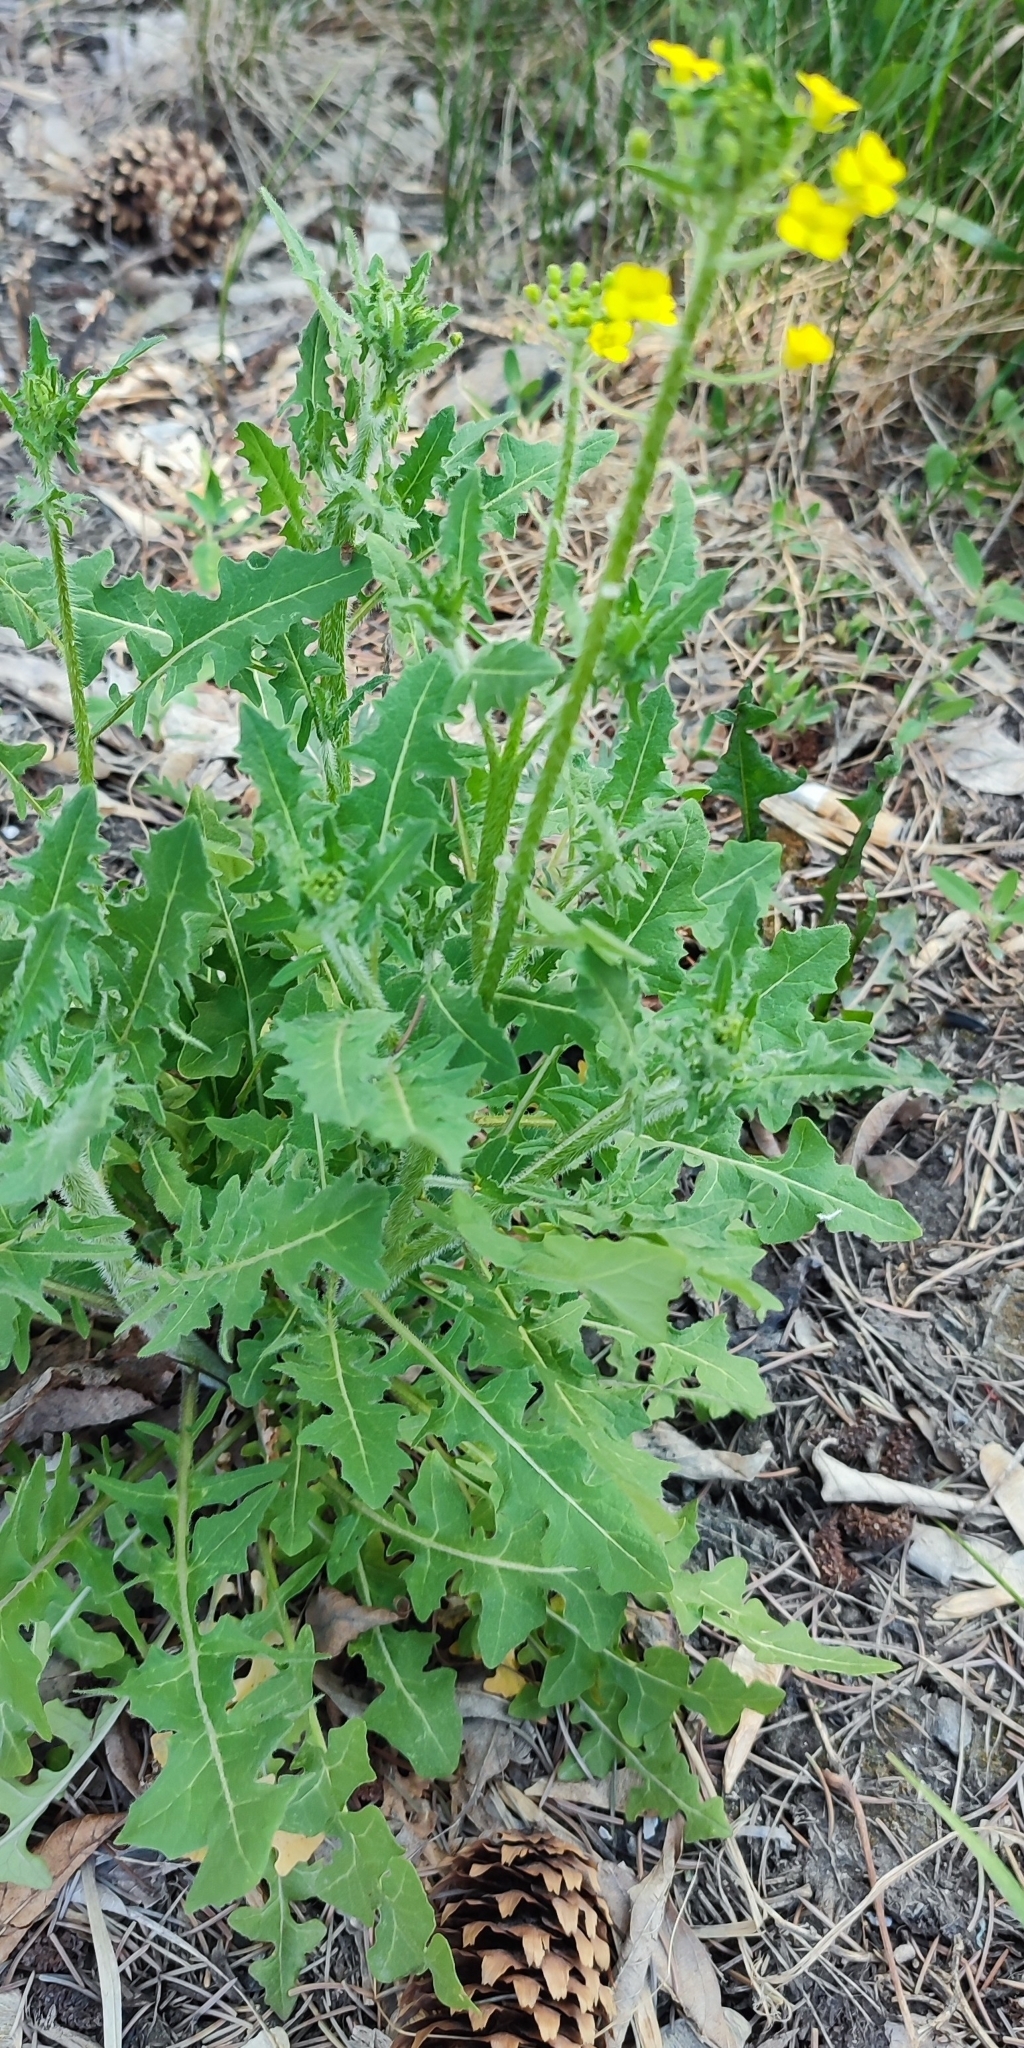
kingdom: Plantae
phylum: Tracheophyta
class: Magnoliopsida
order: Brassicales
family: Brassicaceae
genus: Sisymbrium
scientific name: Sisymbrium loeselii
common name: False london-rocket
